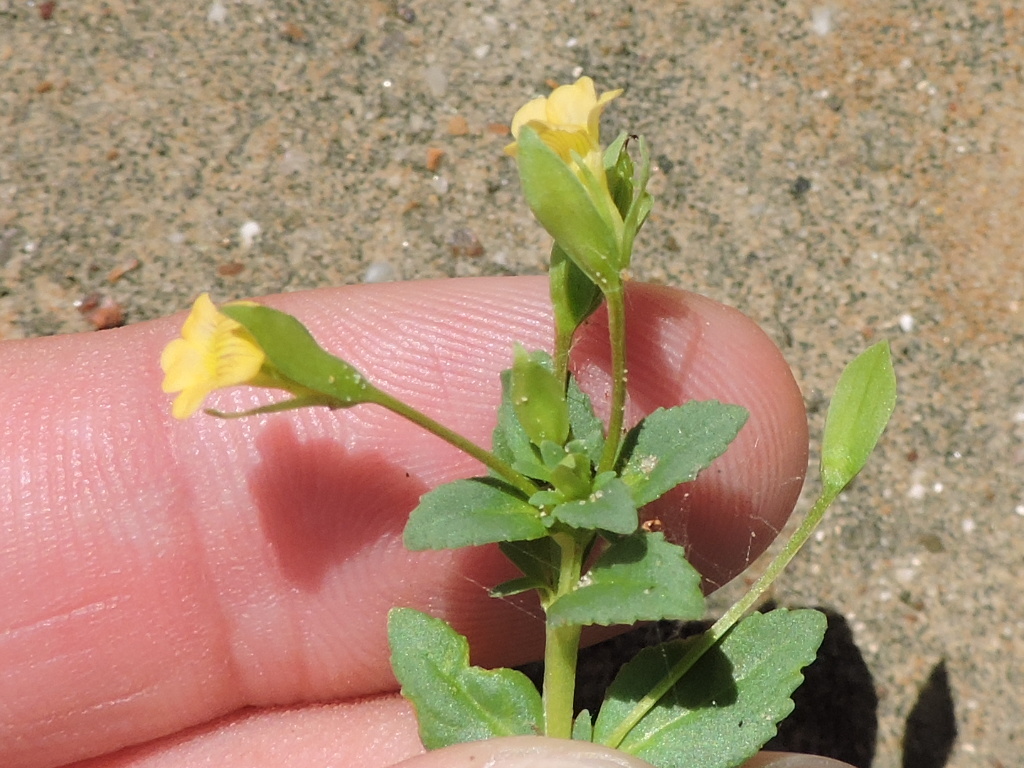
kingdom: Plantae
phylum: Tracheophyta
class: Magnoliopsida
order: Lamiales
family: Plantaginaceae
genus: Mecardonia
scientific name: Mecardonia procumbens
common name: Baby jump-up
